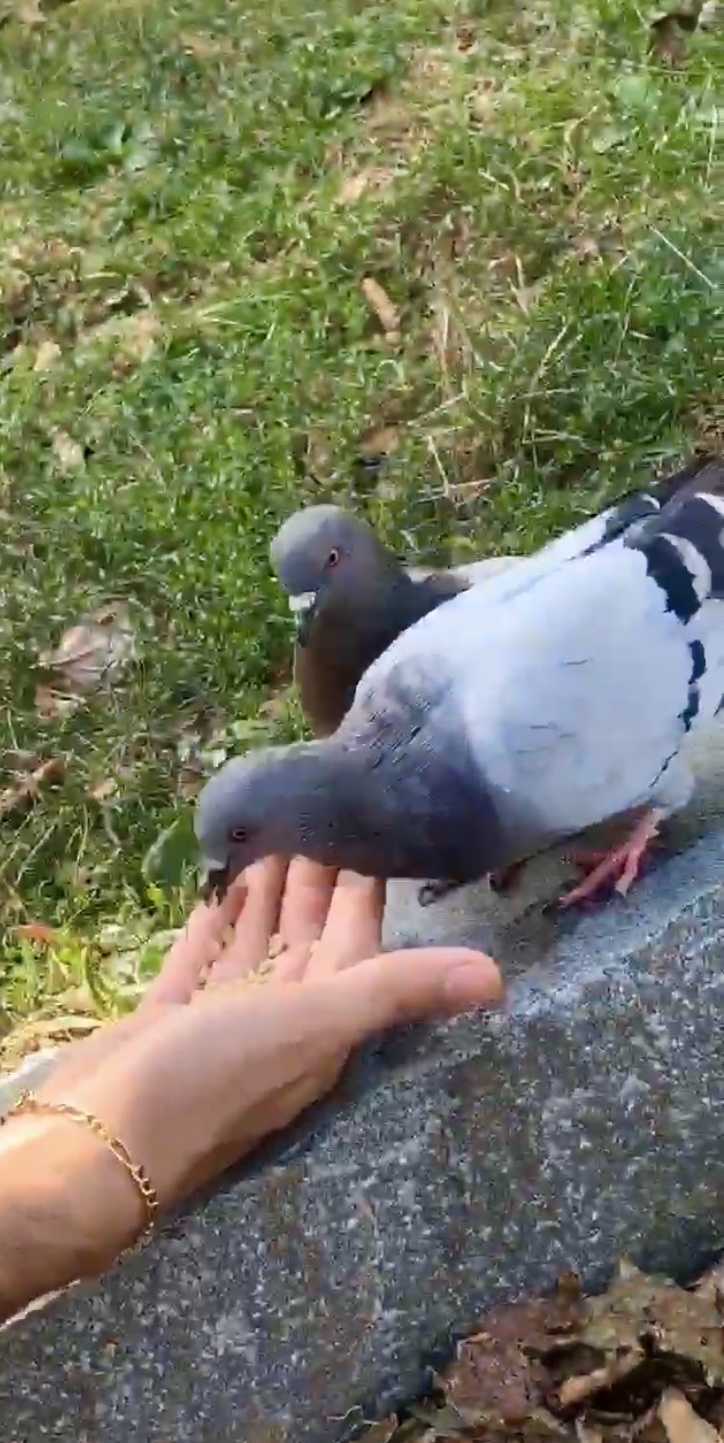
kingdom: Animalia
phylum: Chordata
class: Aves
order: Columbiformes
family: Columbidae
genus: Columba
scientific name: Columba livia
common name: Rock pigeon
